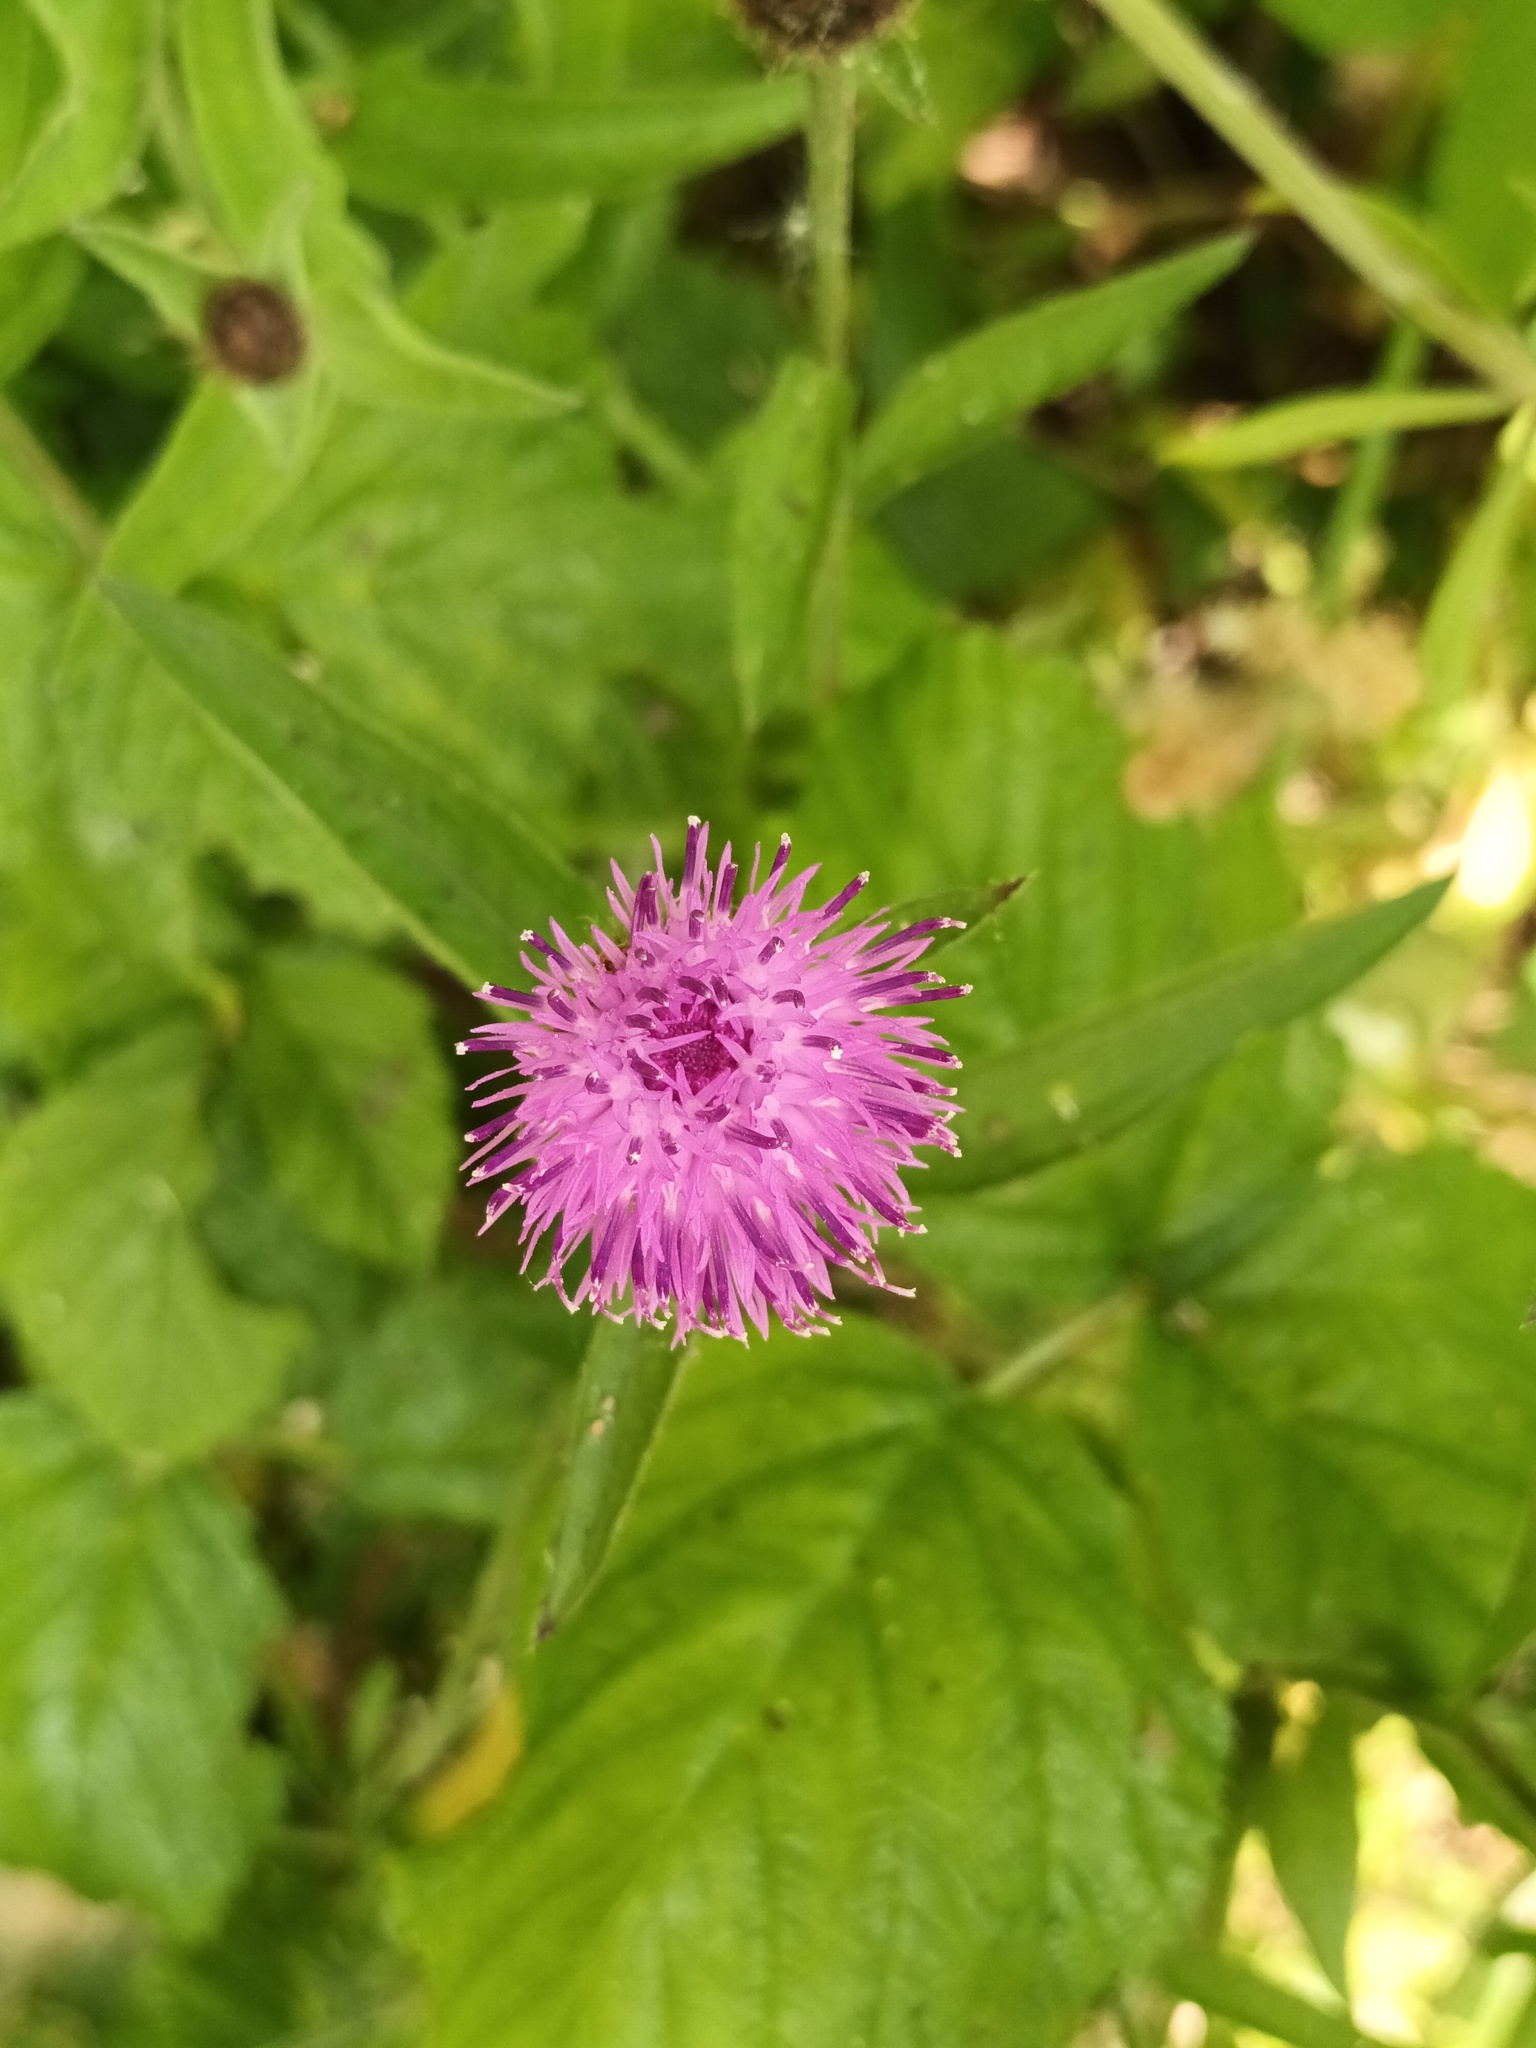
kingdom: Plantae
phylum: Tracheophyta
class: Magnoliopsida
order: Asterales
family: Asteraceae
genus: Centaurea
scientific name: Centaurea nigra
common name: Lesser knapweed
